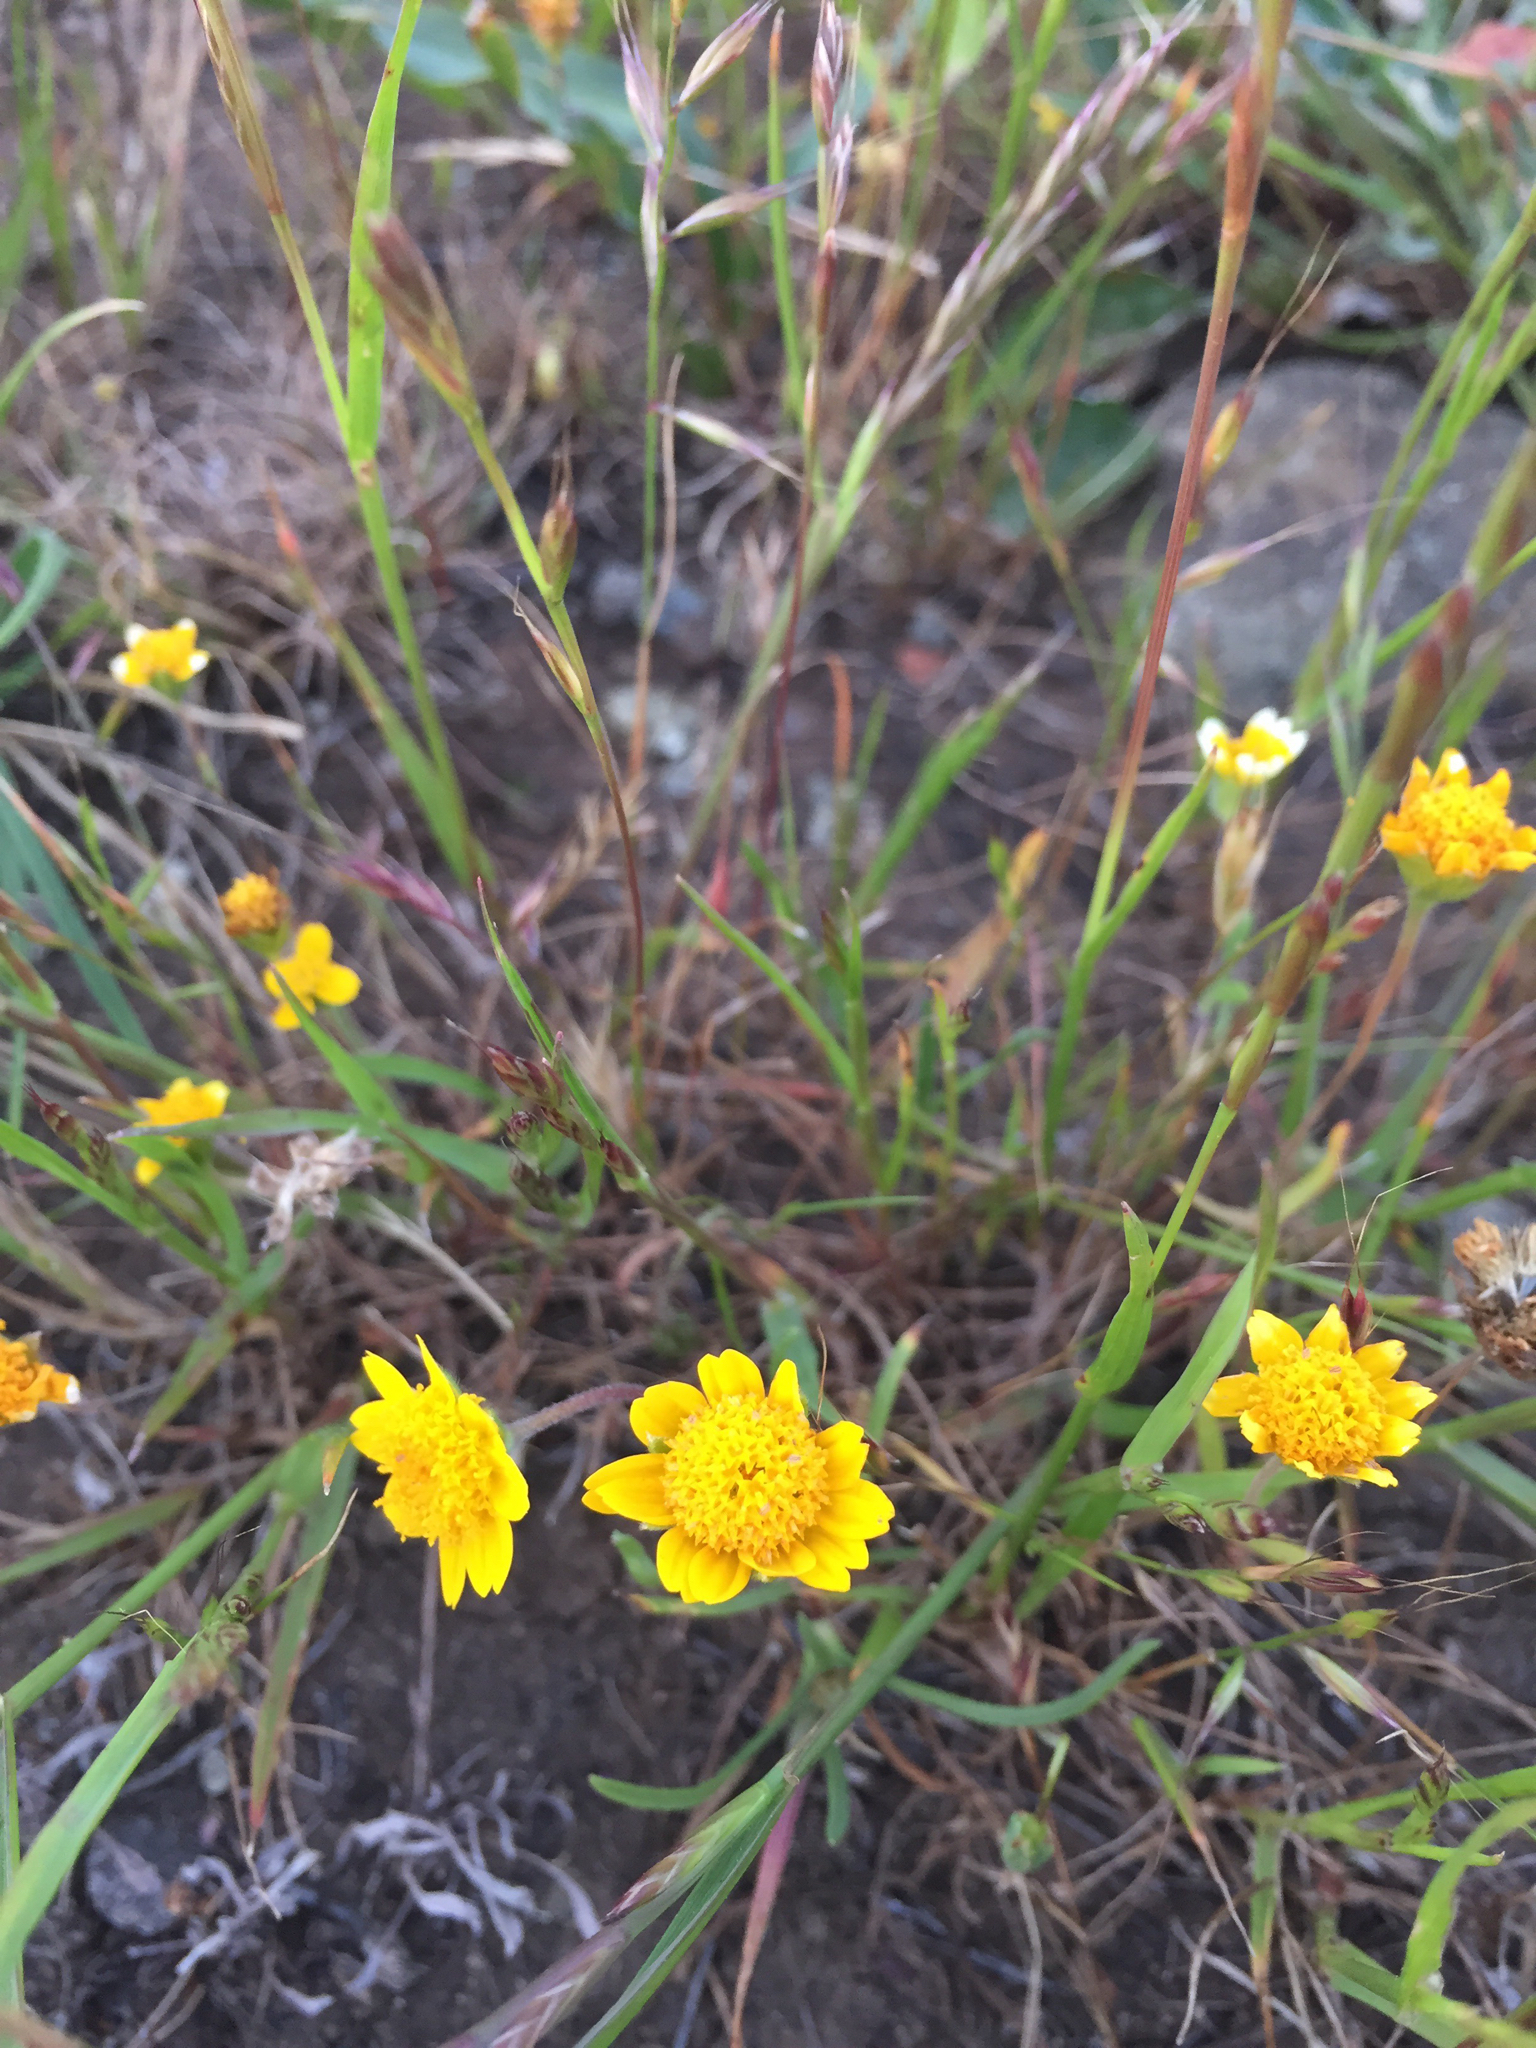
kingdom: Plantae
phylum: Tracheophyta
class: Magnoliopsida
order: Asterales
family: Asteraceae
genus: Lasthenia
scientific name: Lasthenia californica
